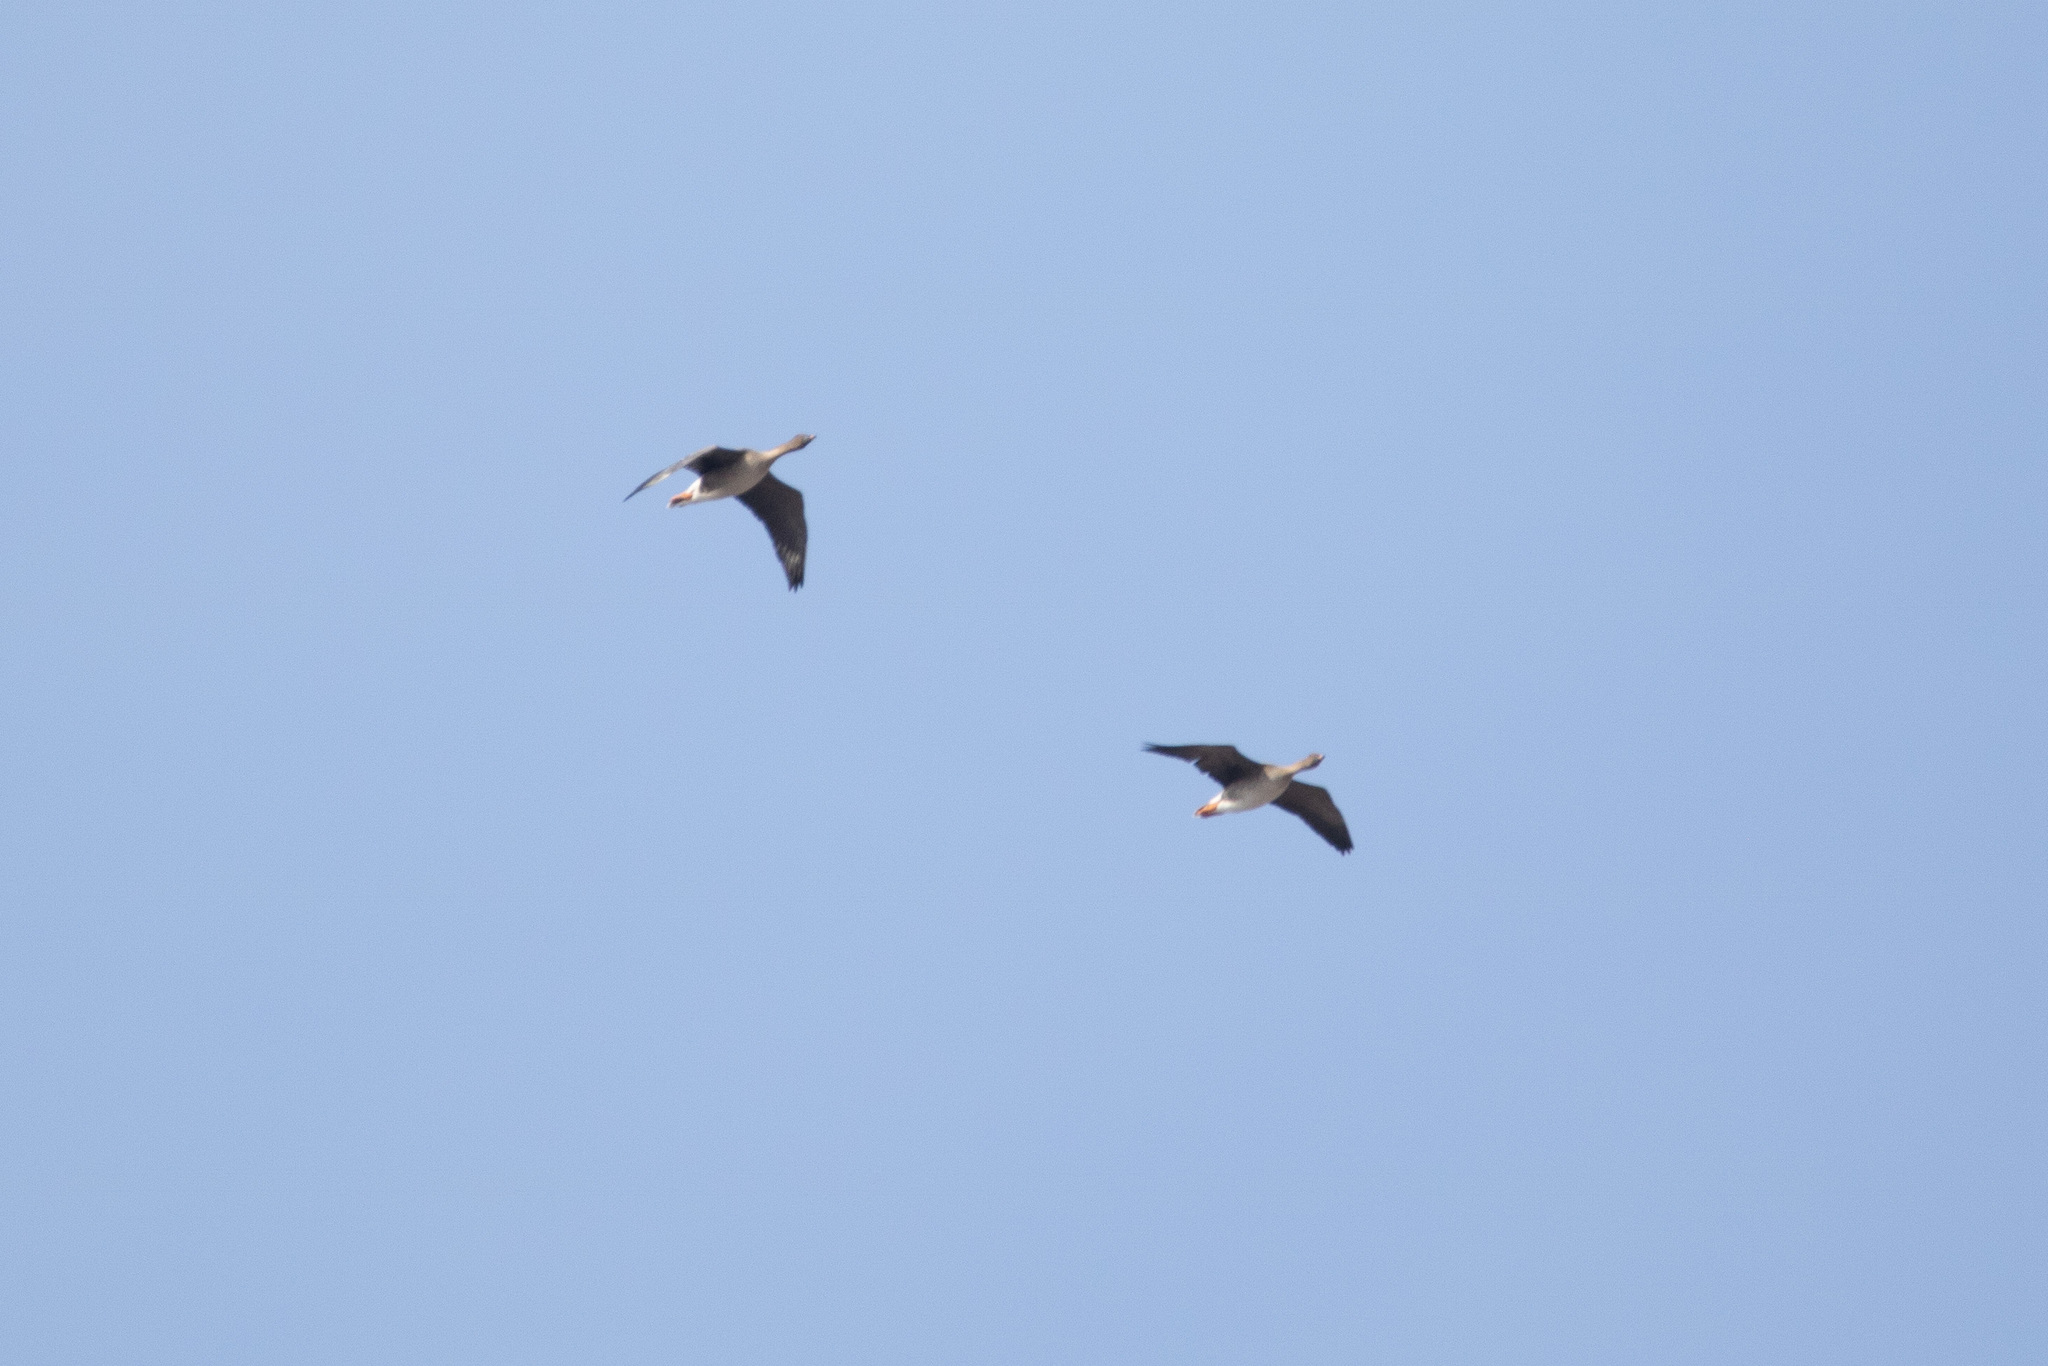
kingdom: Animalia
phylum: Chordata
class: Aves
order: Anseriformes
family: Anatidae
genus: Anser
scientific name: Anser fabalis
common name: Bean goose
